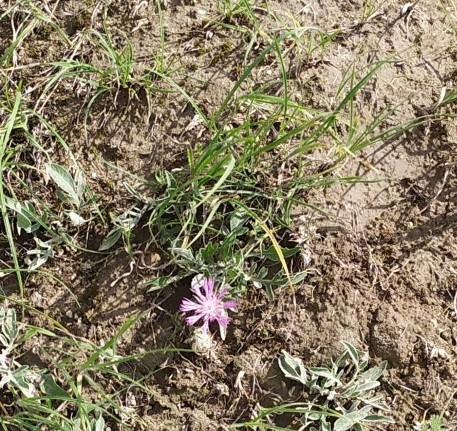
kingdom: Plantae
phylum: Tracheophyta
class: Magnoliopsida
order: Asterales
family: Asteraceae
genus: Psephellus
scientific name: Psephellus carbonatus
